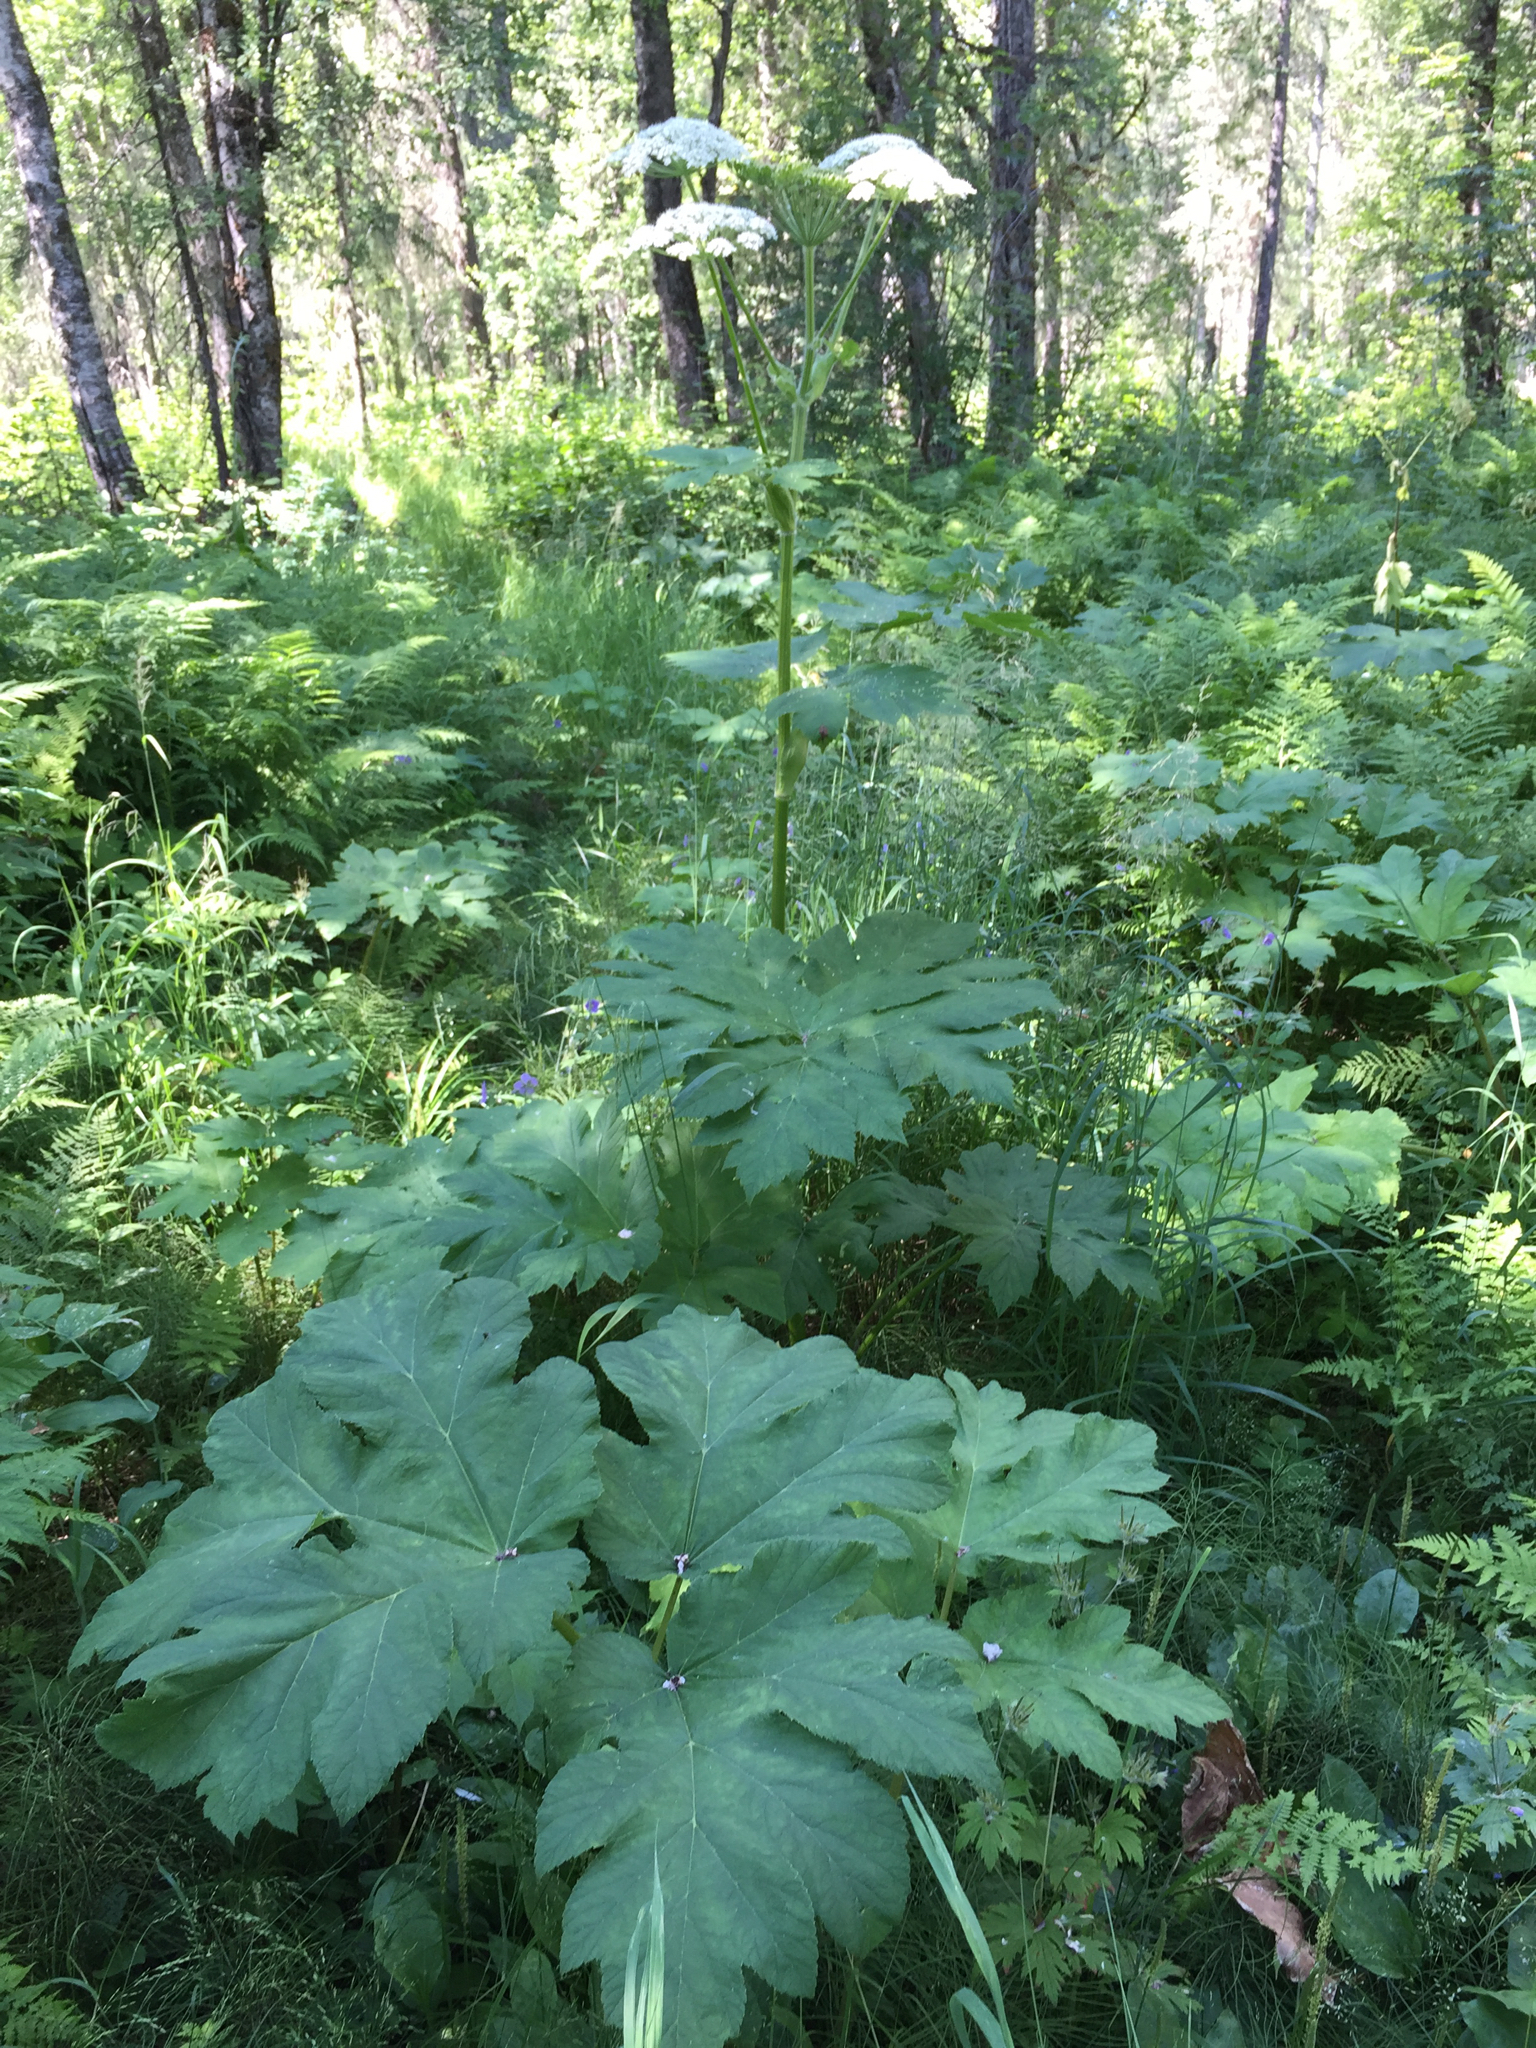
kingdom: Plantae
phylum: Tracheophyta
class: Magnoliopsida
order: Apiales
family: Apiaceae
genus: Heracleum
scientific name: Heracleum maximum
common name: American cow parsnip
